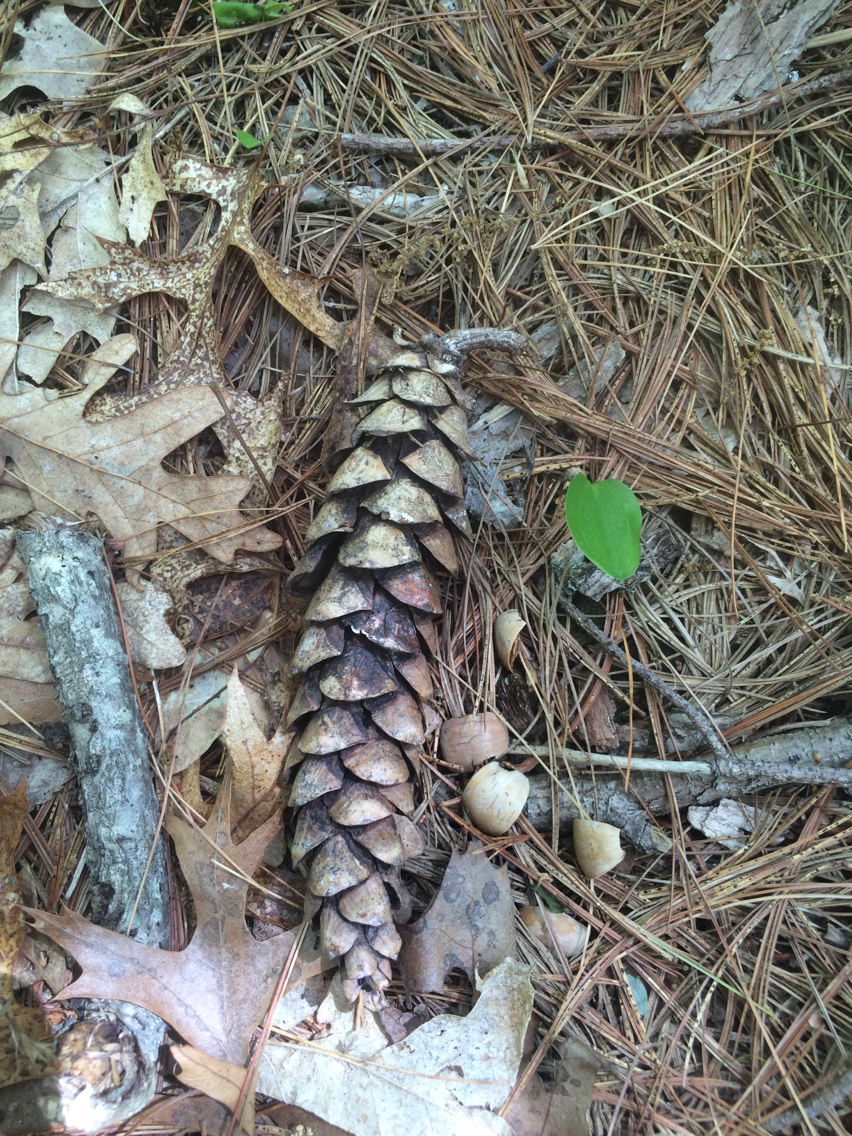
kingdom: Plantae
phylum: Tracheophyta
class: Pinopsida
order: Pinales
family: Pinaceae
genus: Pinus
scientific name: Pinus strobus
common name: Weymouth pine
